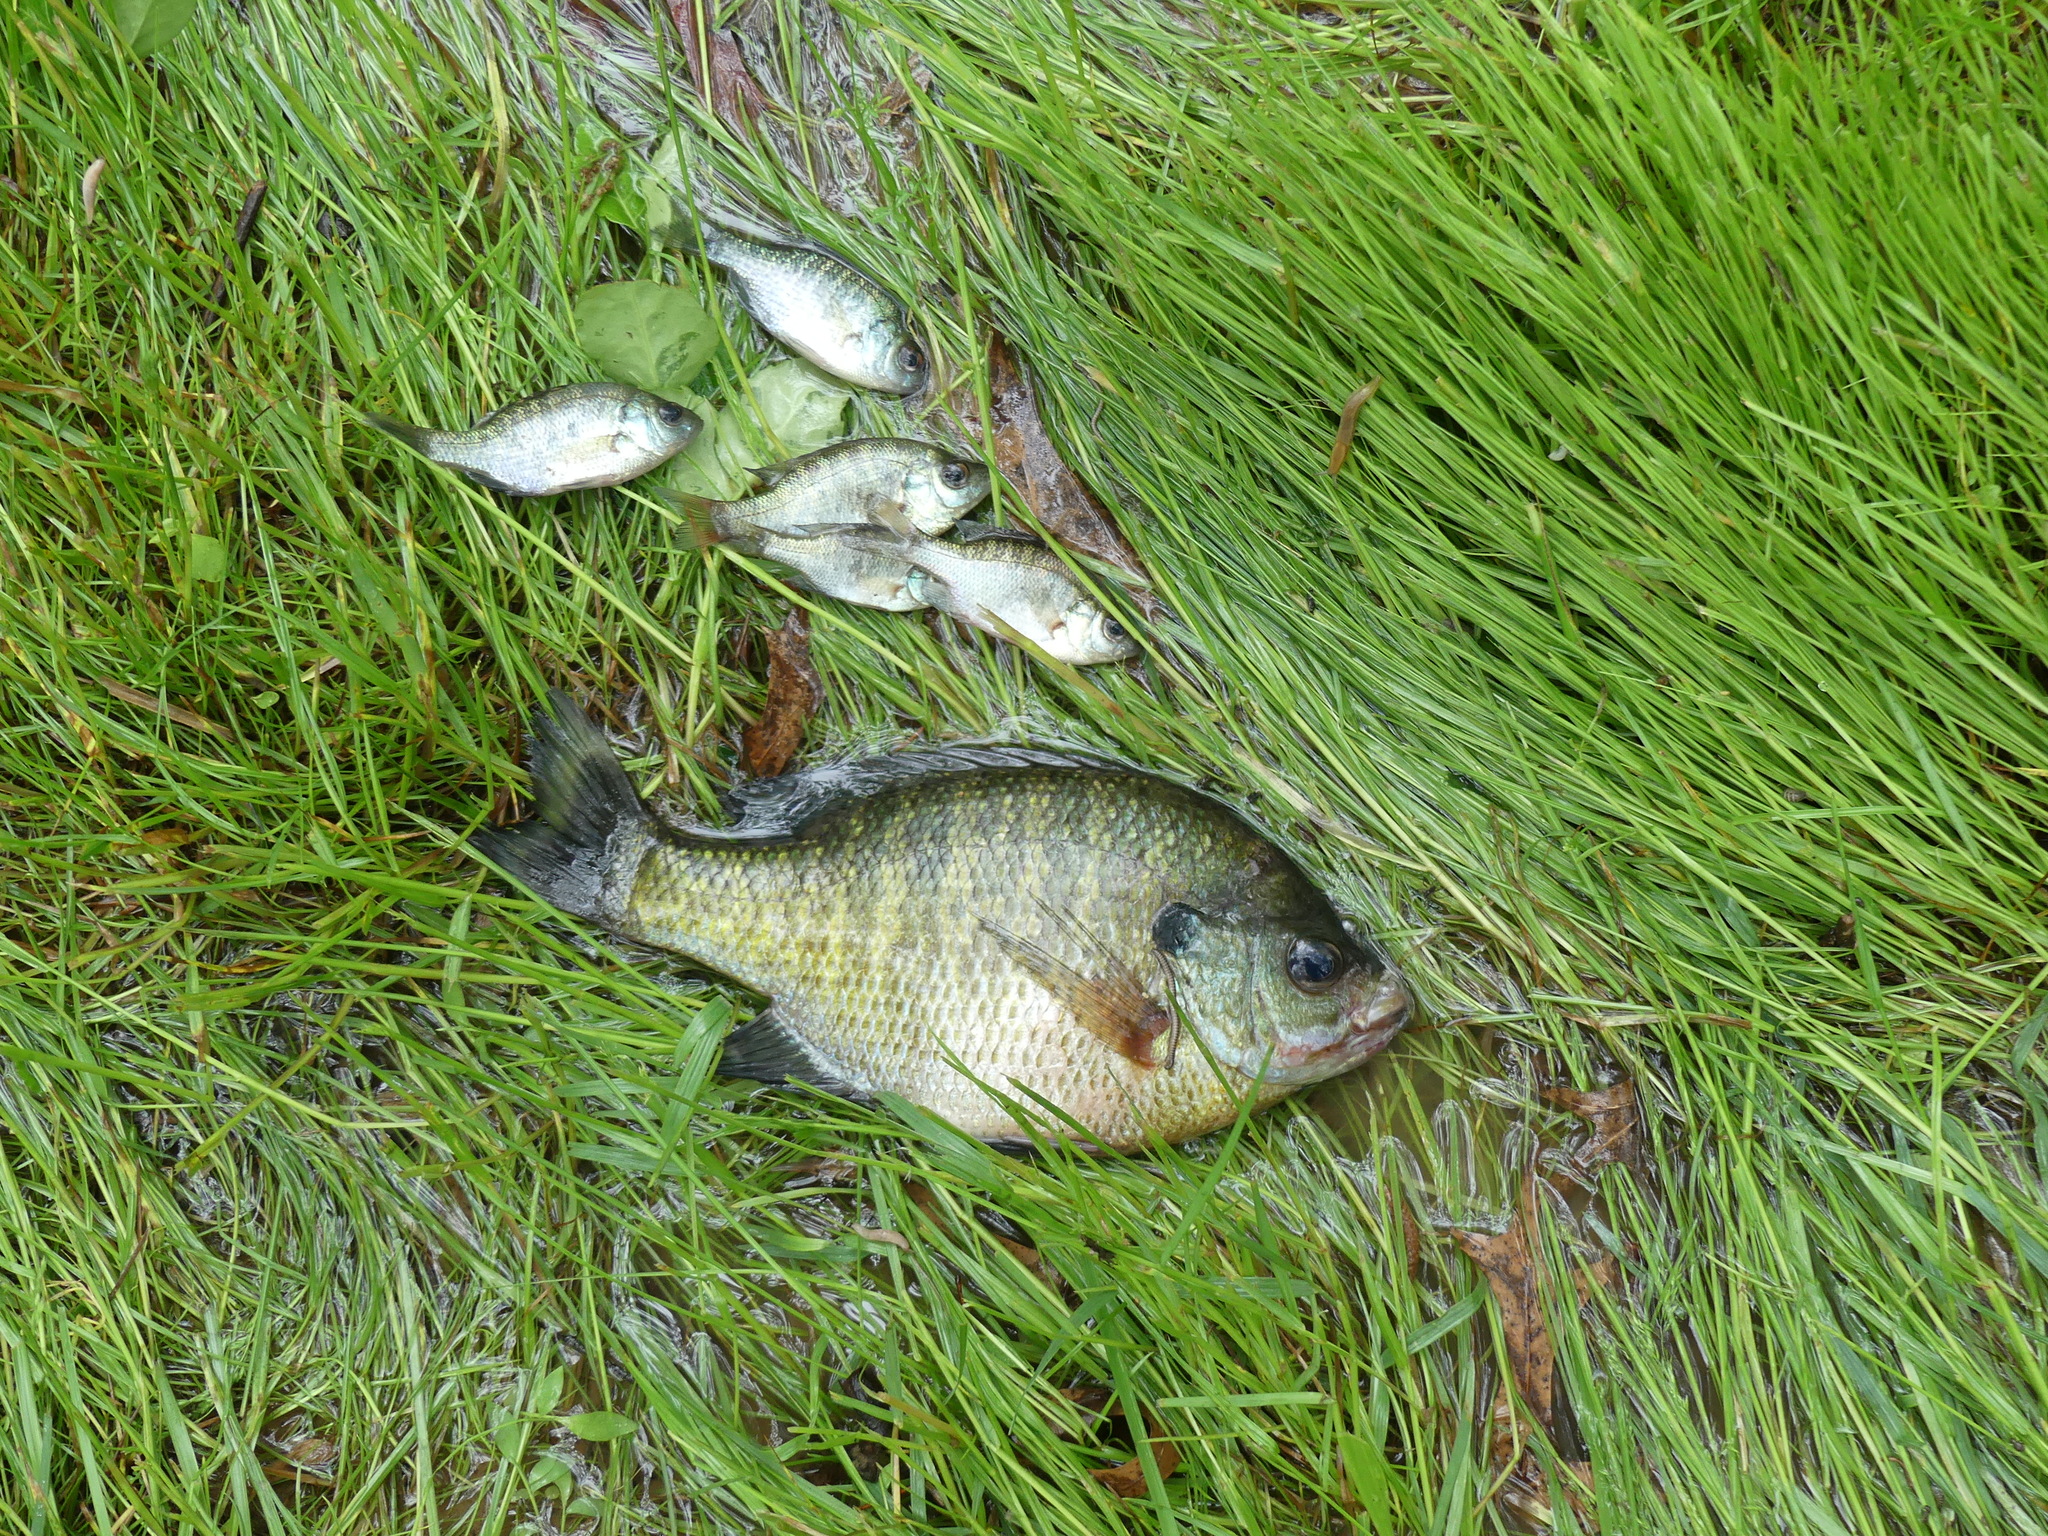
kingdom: Animalia
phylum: Chordata
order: Perciformes
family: Centrarchidae
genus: Lepomis
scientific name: Lepomis macrochirus
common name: Bluegill
